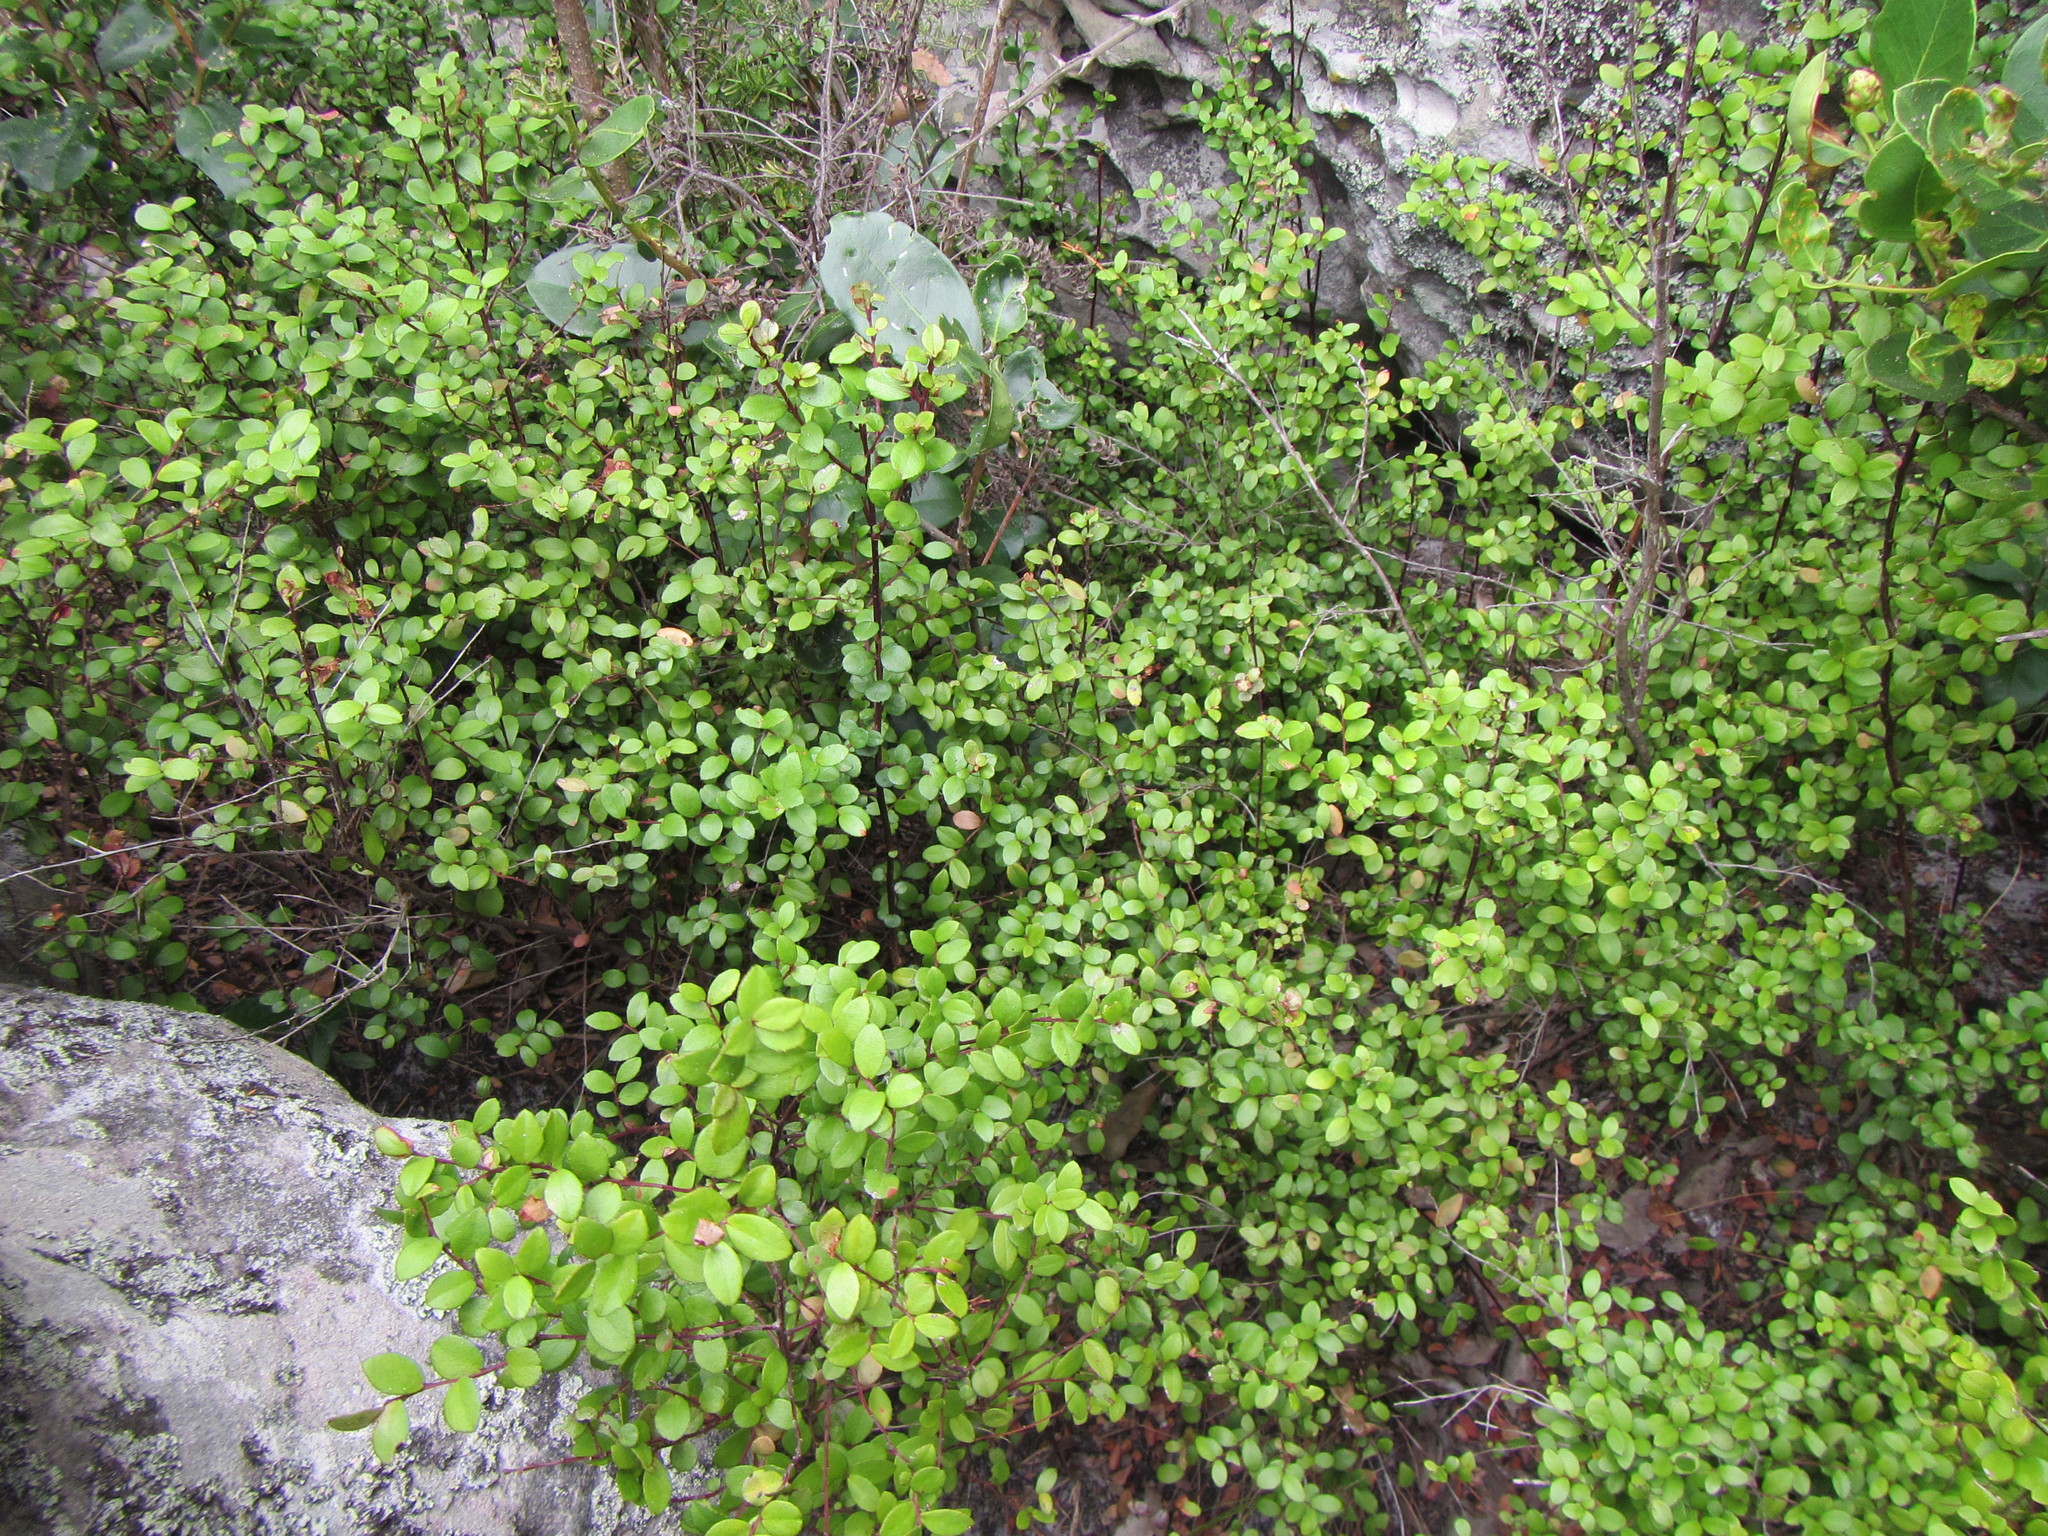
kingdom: Plantae
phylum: Tracheophyta
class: Magnoliopsida
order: Ericales
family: Primulaceae
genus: Myrsine
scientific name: Myrsine africana
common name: African-boxwood
